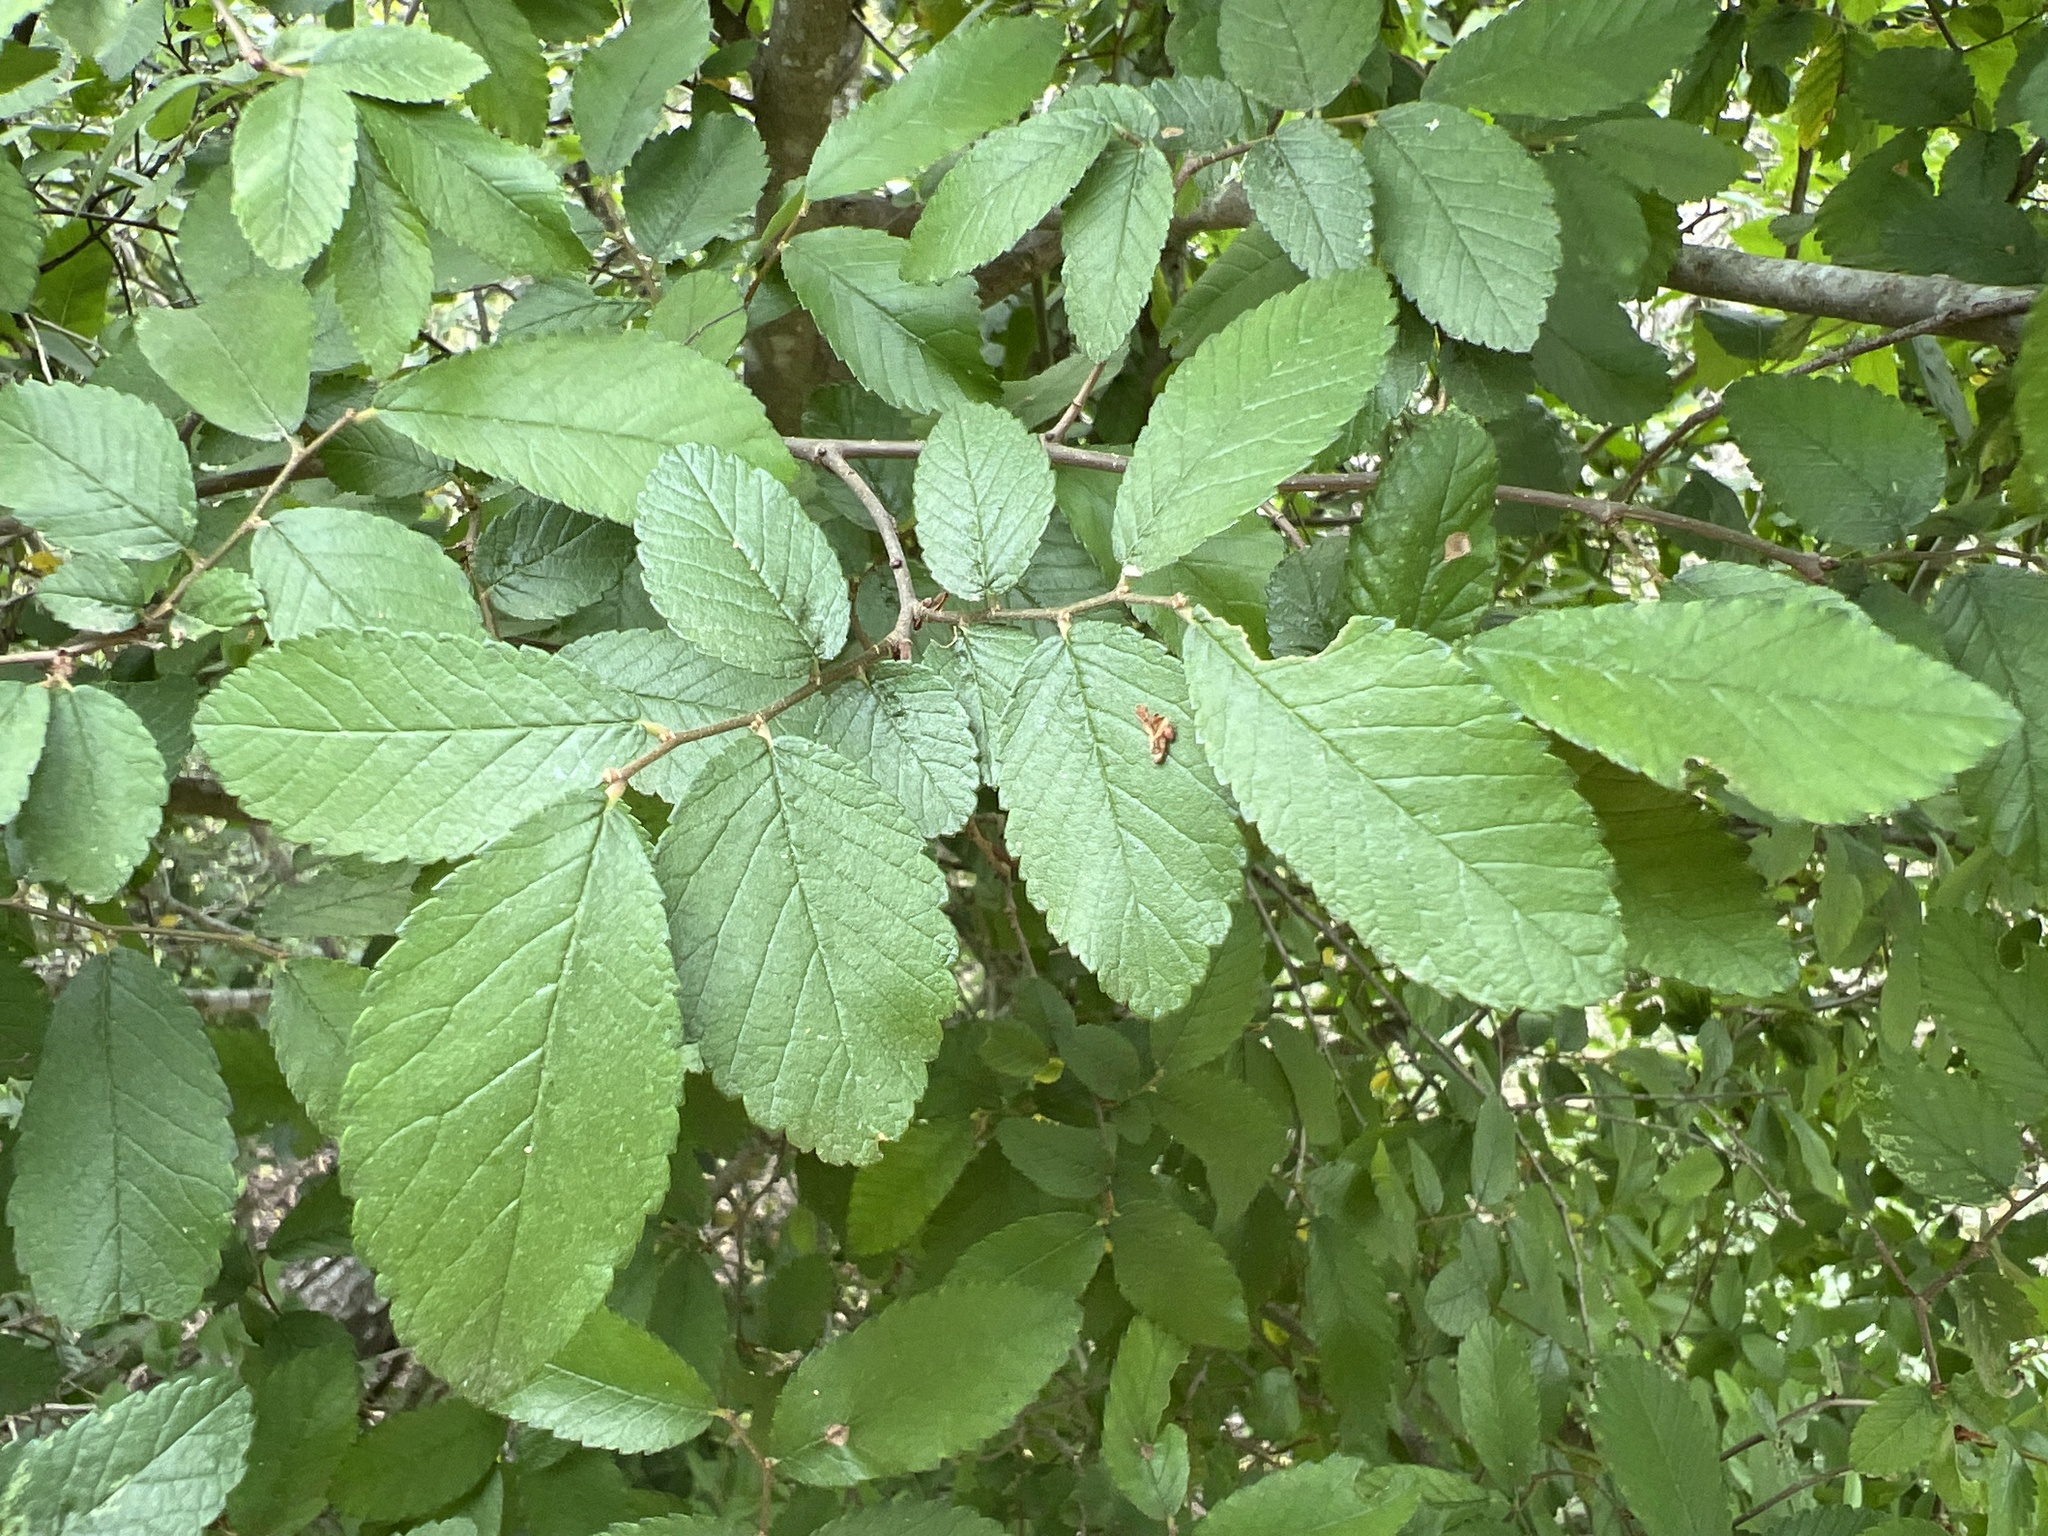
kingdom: Plantae
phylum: Tracheophyta
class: Magnoliopsida
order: Rosales
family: Ulmaceae
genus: Ulmus
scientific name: Ulmus crassifolia
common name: Basket elm
